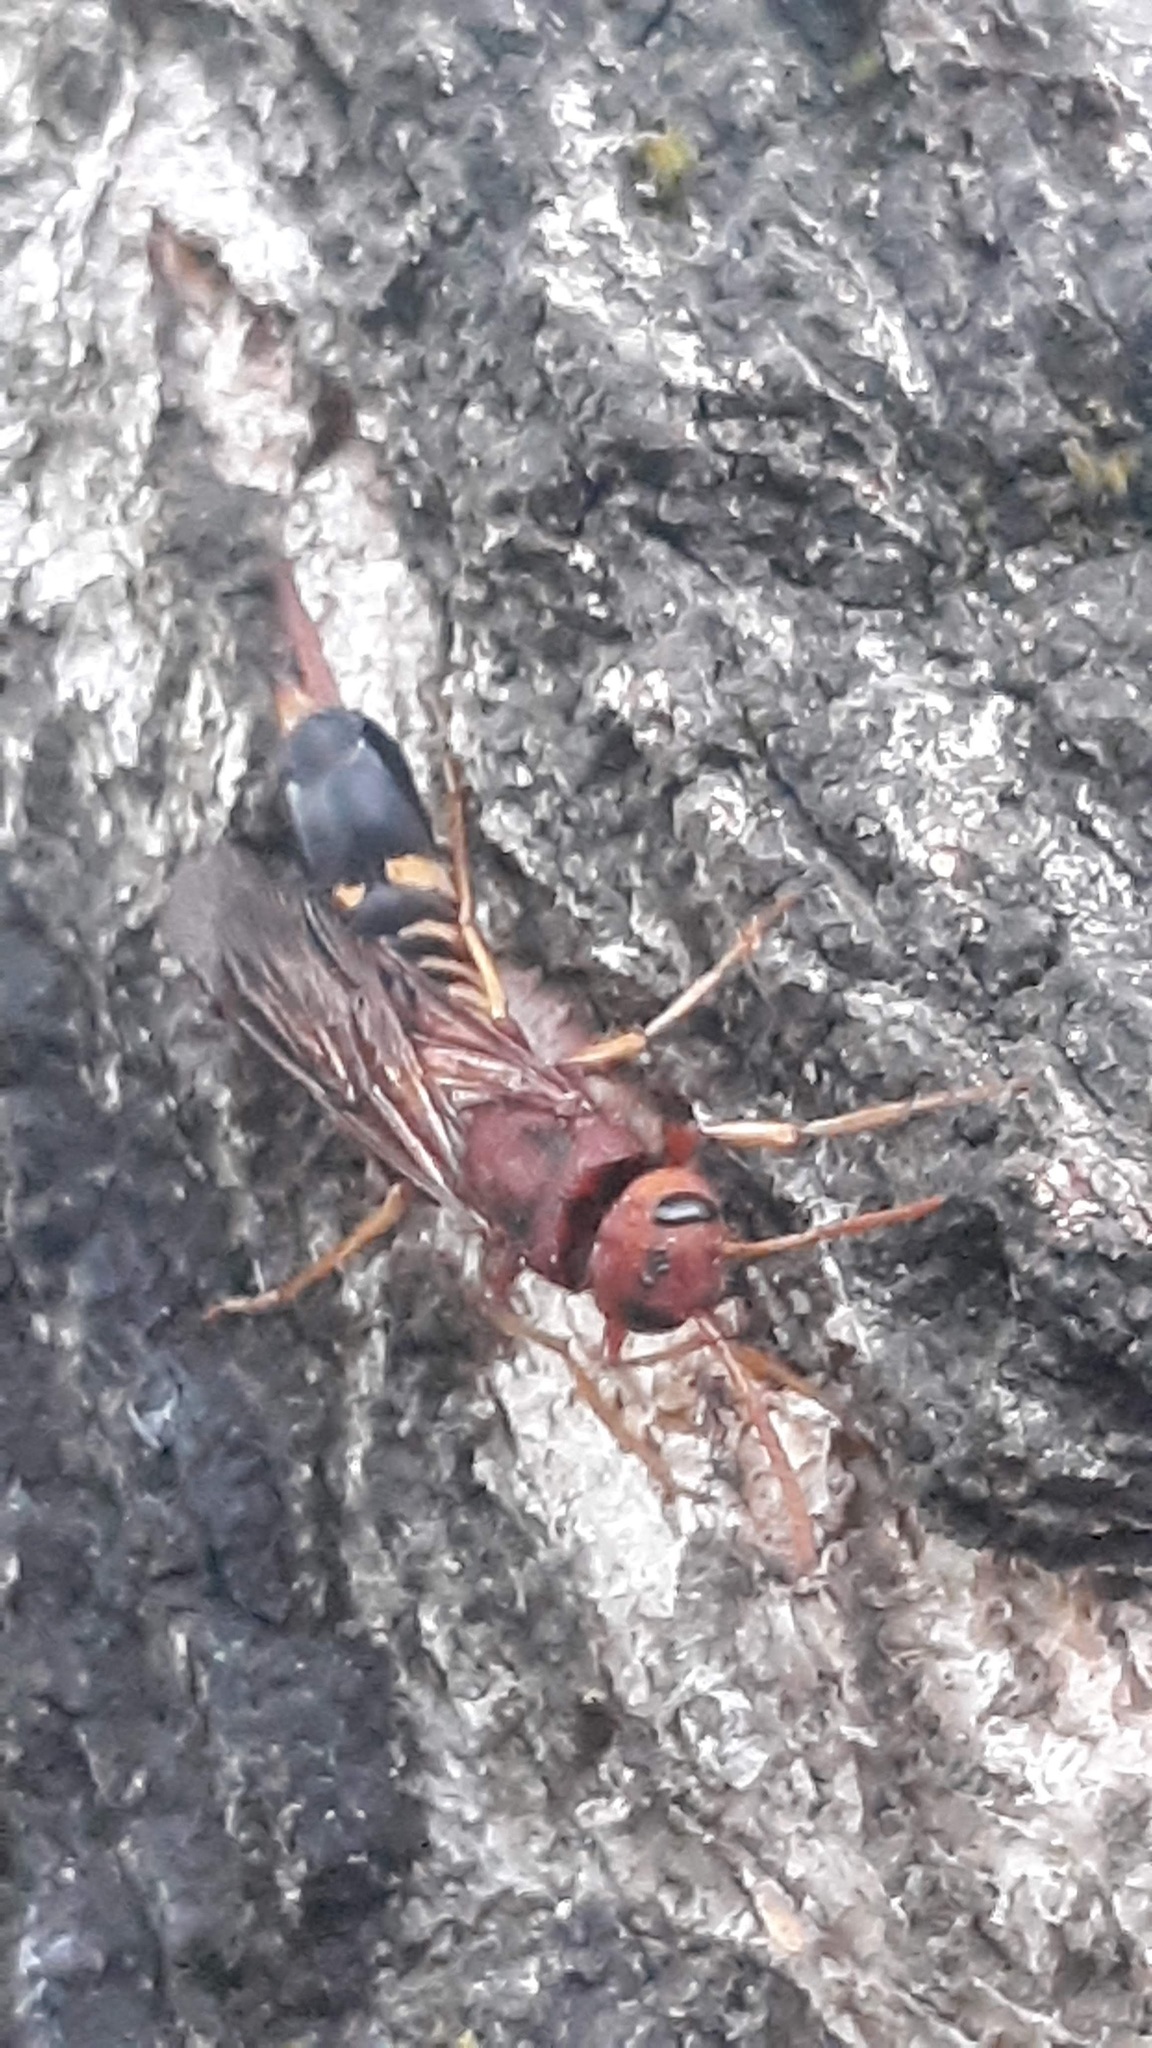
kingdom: Animalia
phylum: Arthropoda
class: Insecta
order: Hymenoptera
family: Siricidae
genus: Tremex
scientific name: Tremex columba
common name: Wasp
